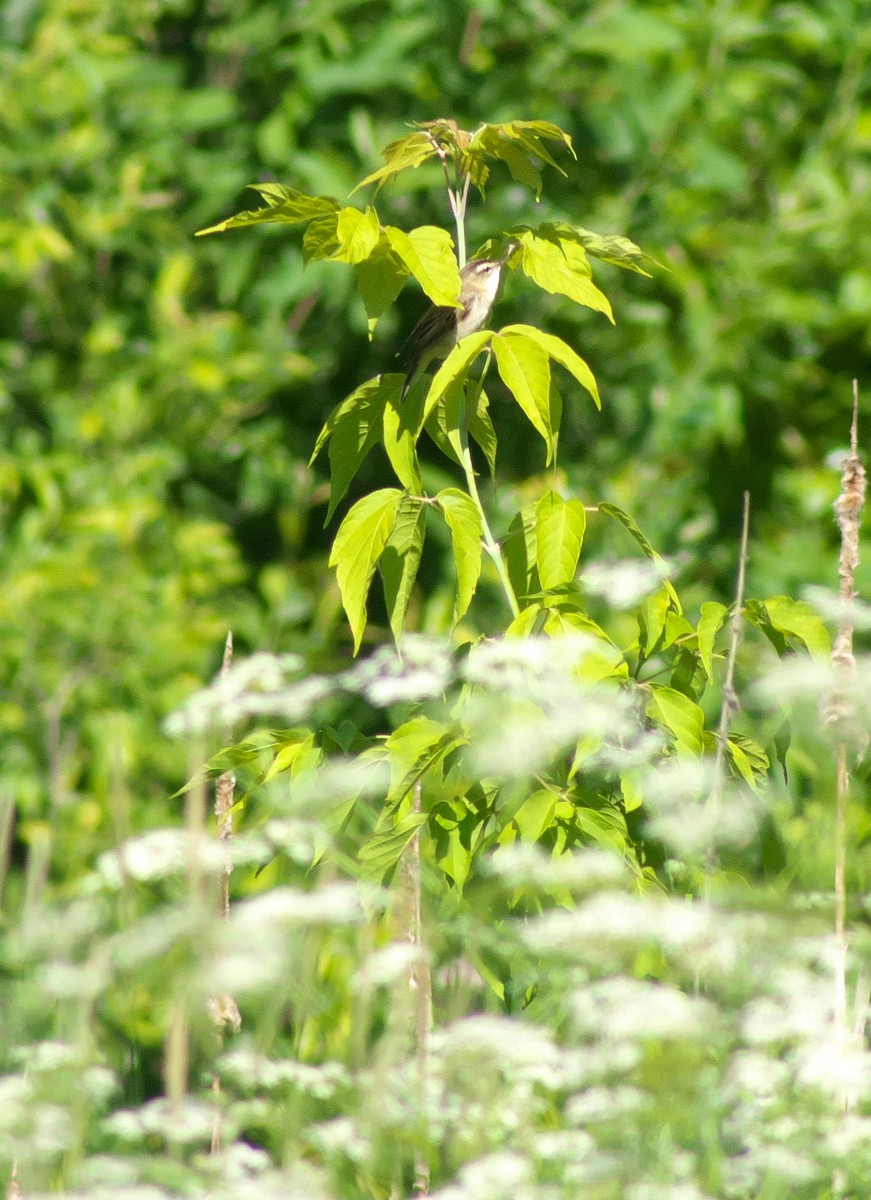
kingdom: Animalia
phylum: Chordata
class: Aves
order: Passeriformes
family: Acrocephalidae
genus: Acrocephalus
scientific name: Acrocephalus schoenobaenus
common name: Sedge warbler
